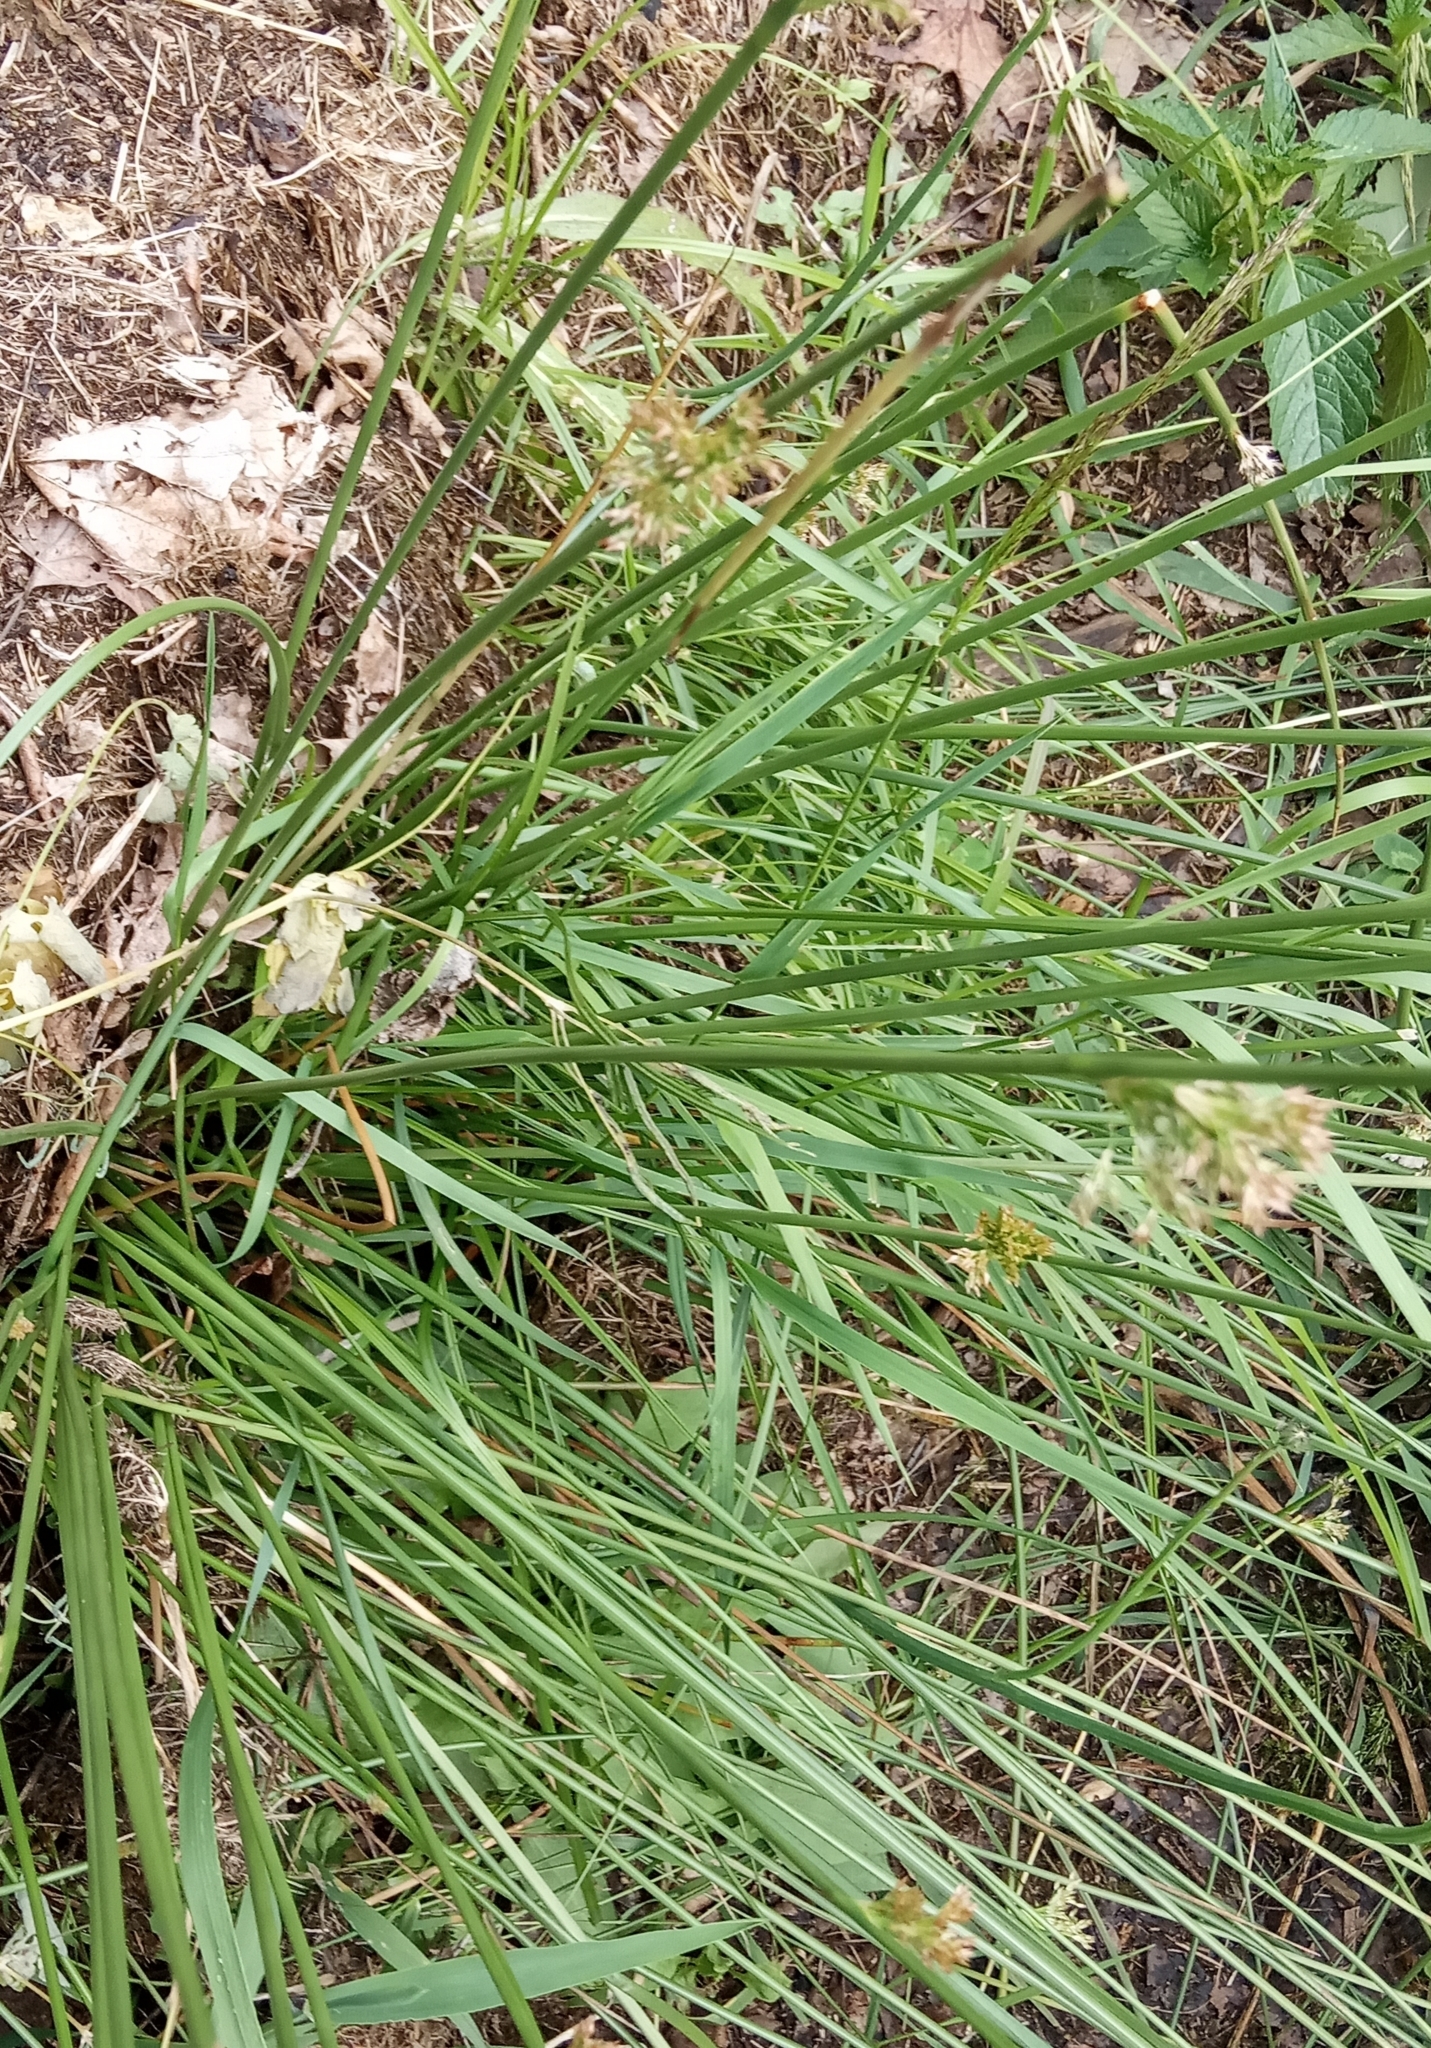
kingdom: Plantae
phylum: Tracheophyta
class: Liliopsida
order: Poales
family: Juncaceae
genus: Juncus
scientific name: Juncus effusus
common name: Soft rush
